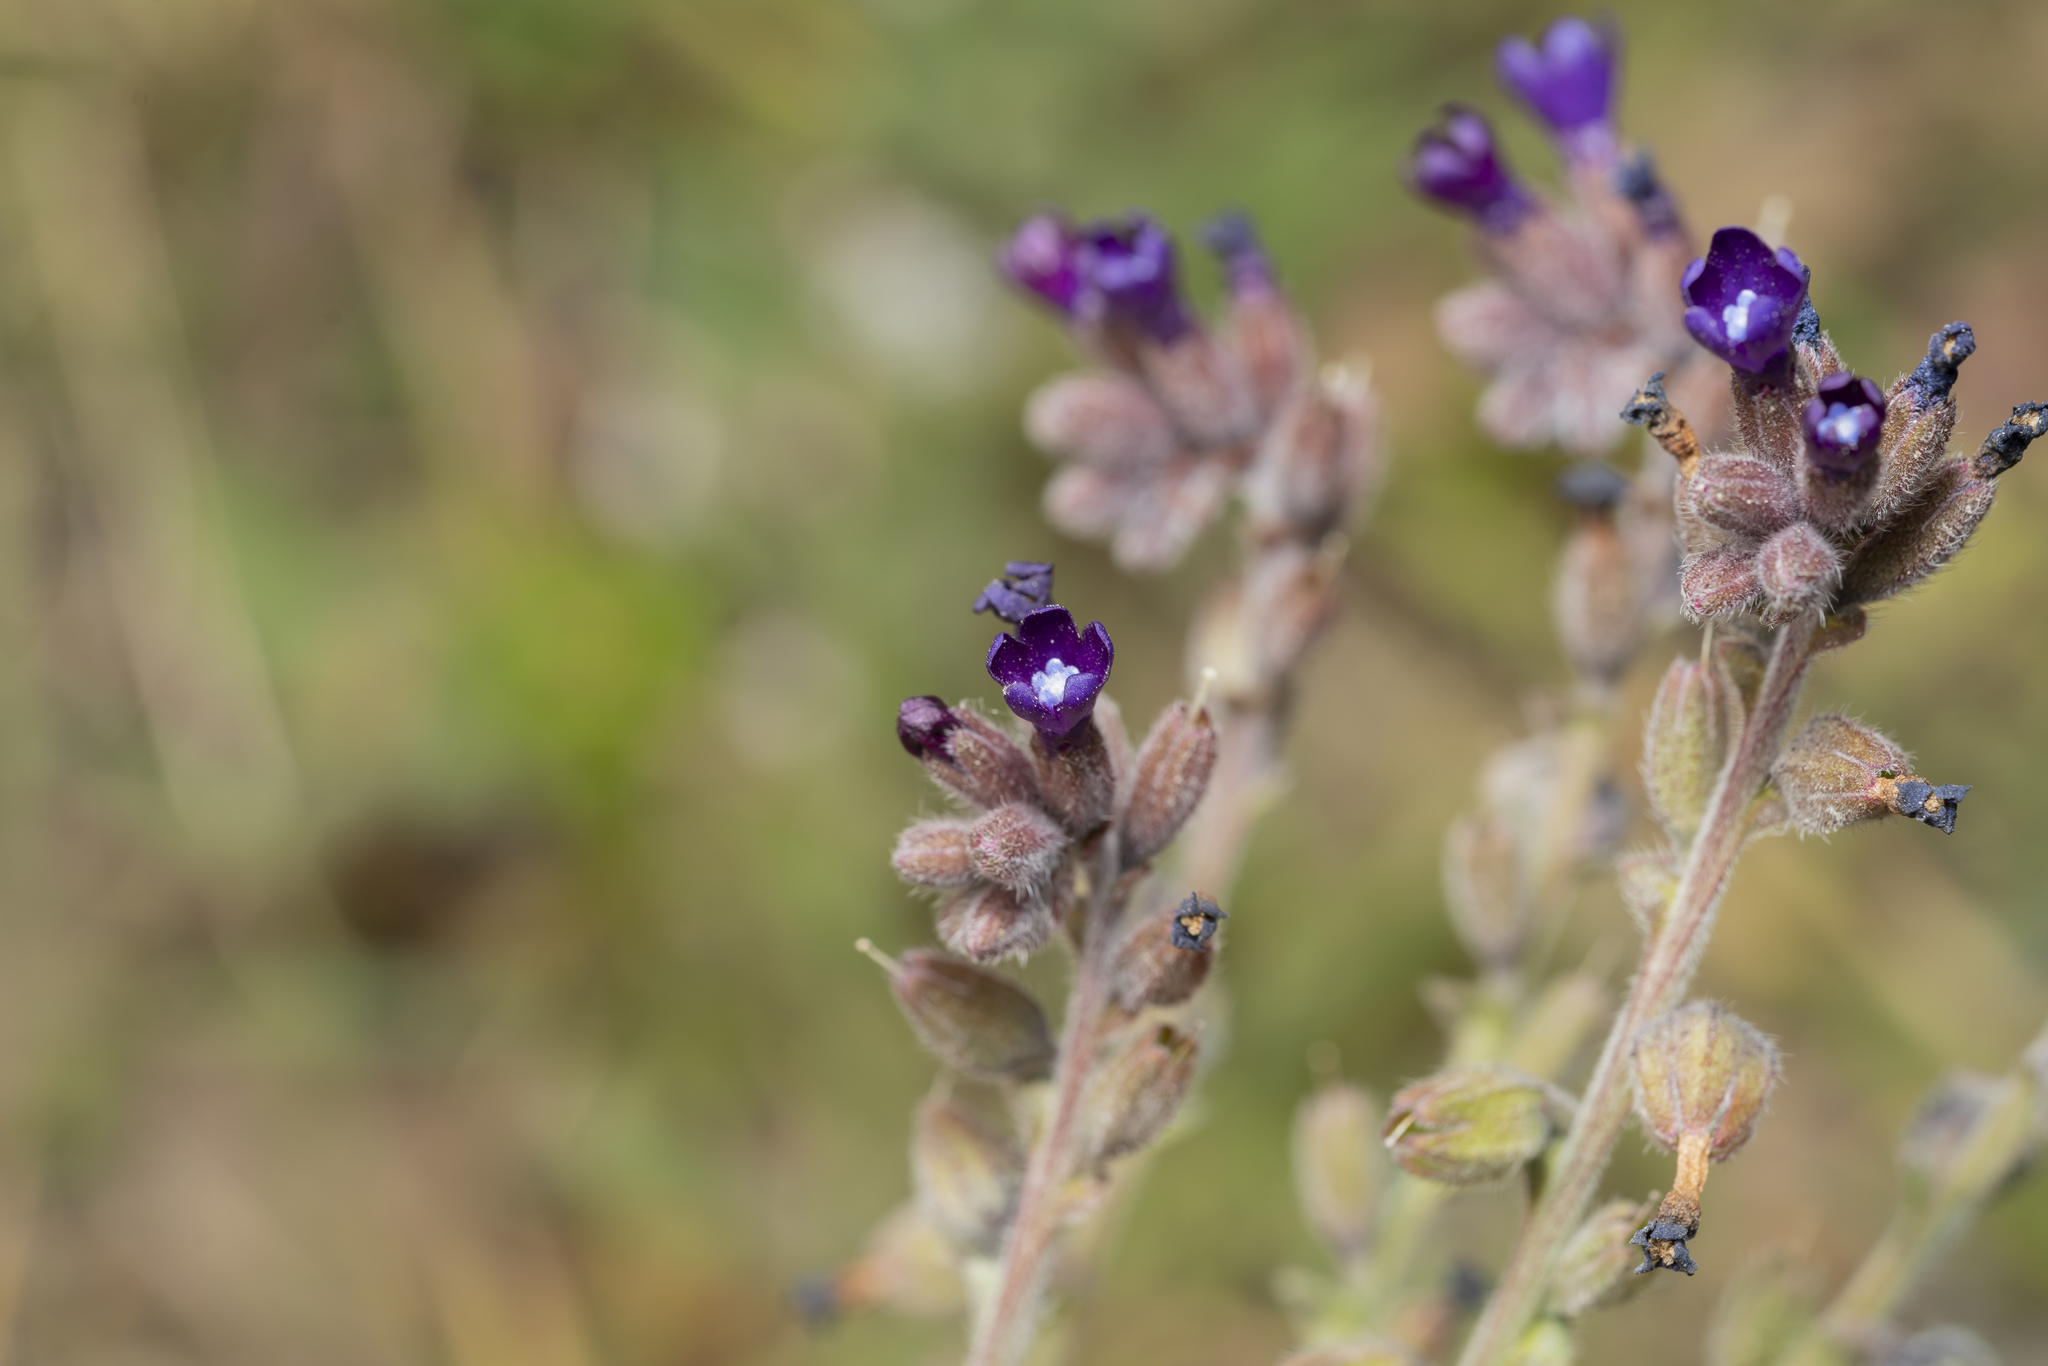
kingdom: Plantae
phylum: Tracheophyta
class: Magnoliopsida
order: Boraginales
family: Boraginaceae
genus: Anchusa
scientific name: Anchusa hybrida
